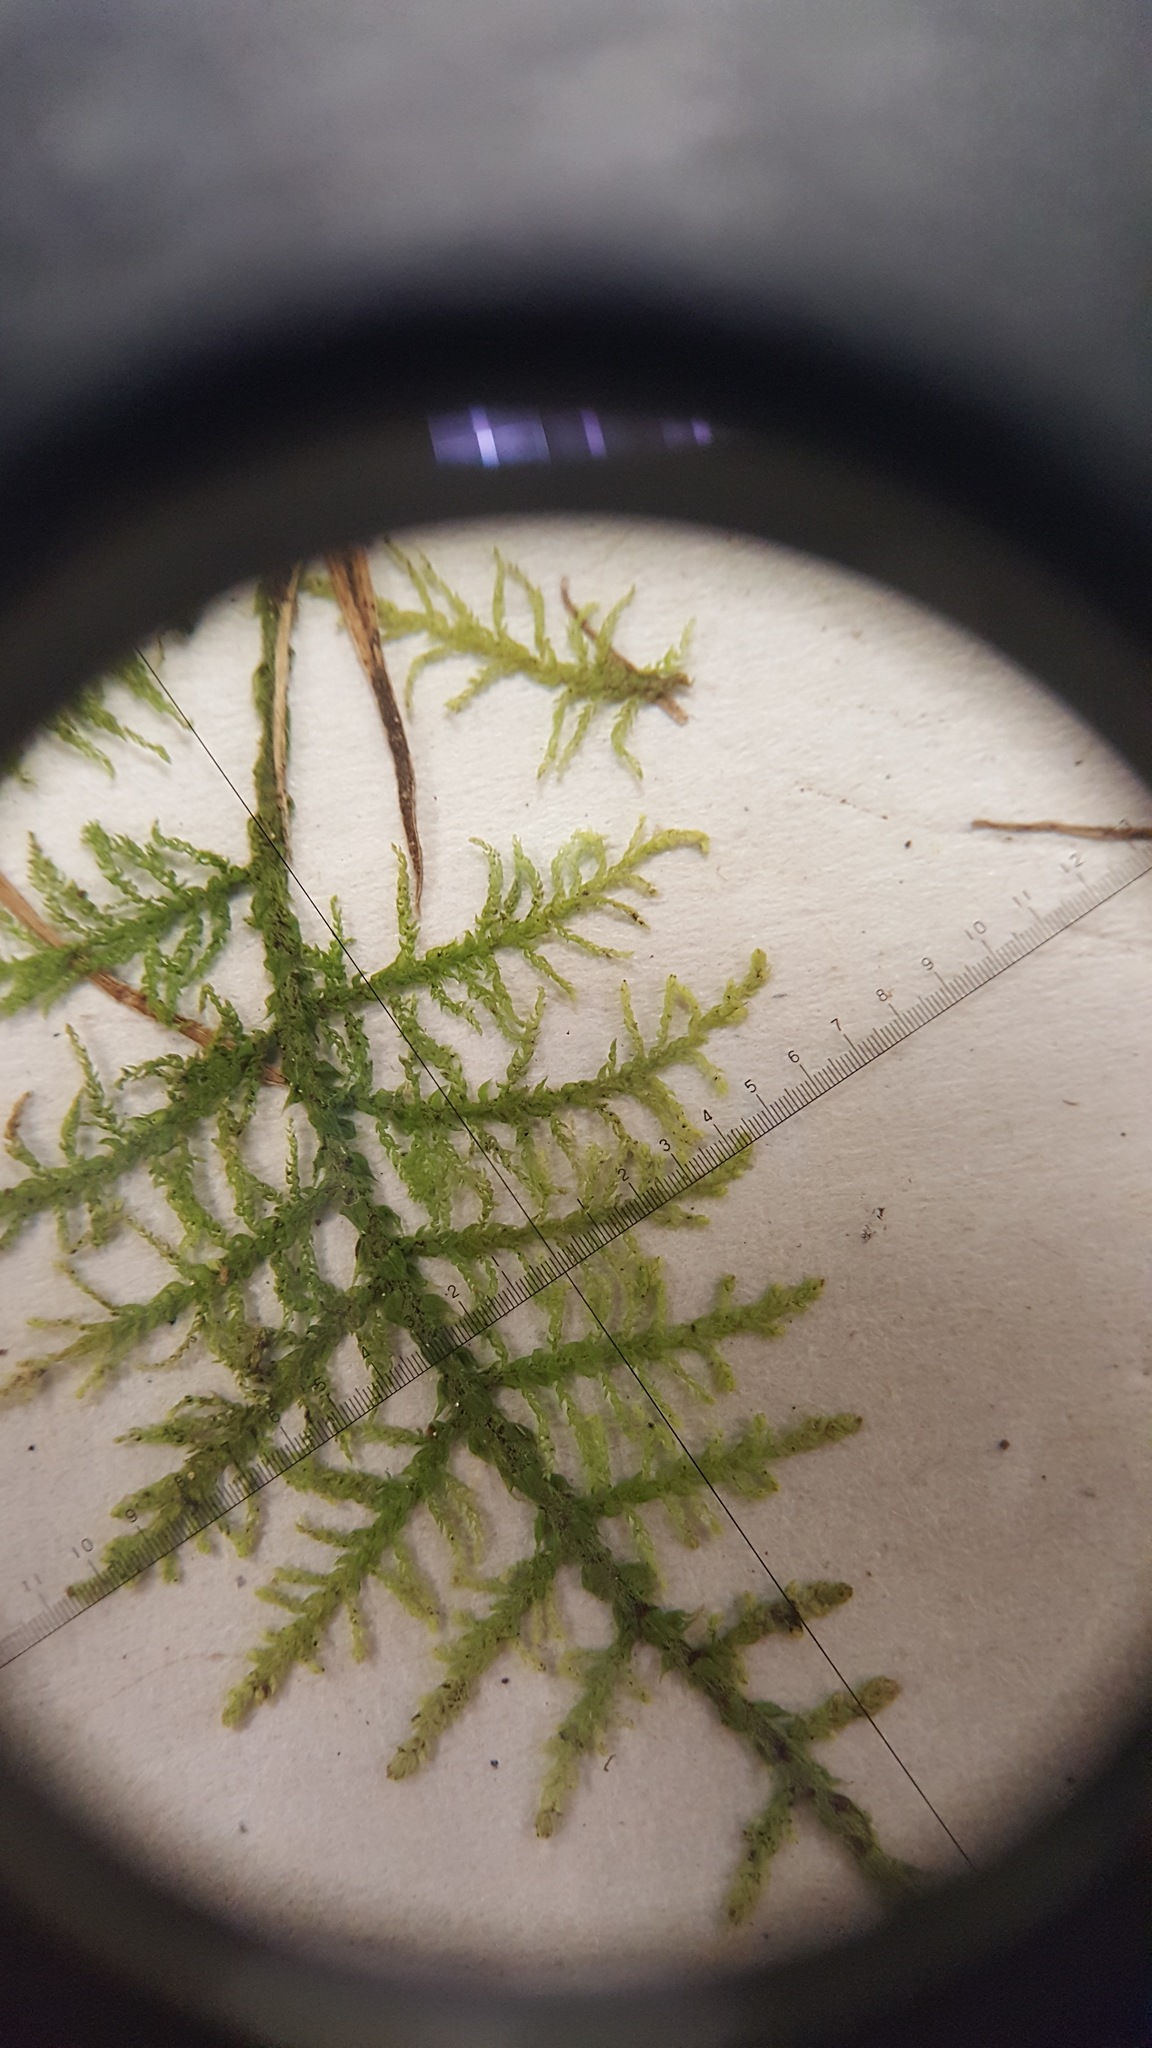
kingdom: Plantae
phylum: Bryophyta
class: Bryopsida
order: Hypnales
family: Thuidiaceae
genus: Thuidium
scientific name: Thuidium delicatulum
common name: Delicate fern moss
